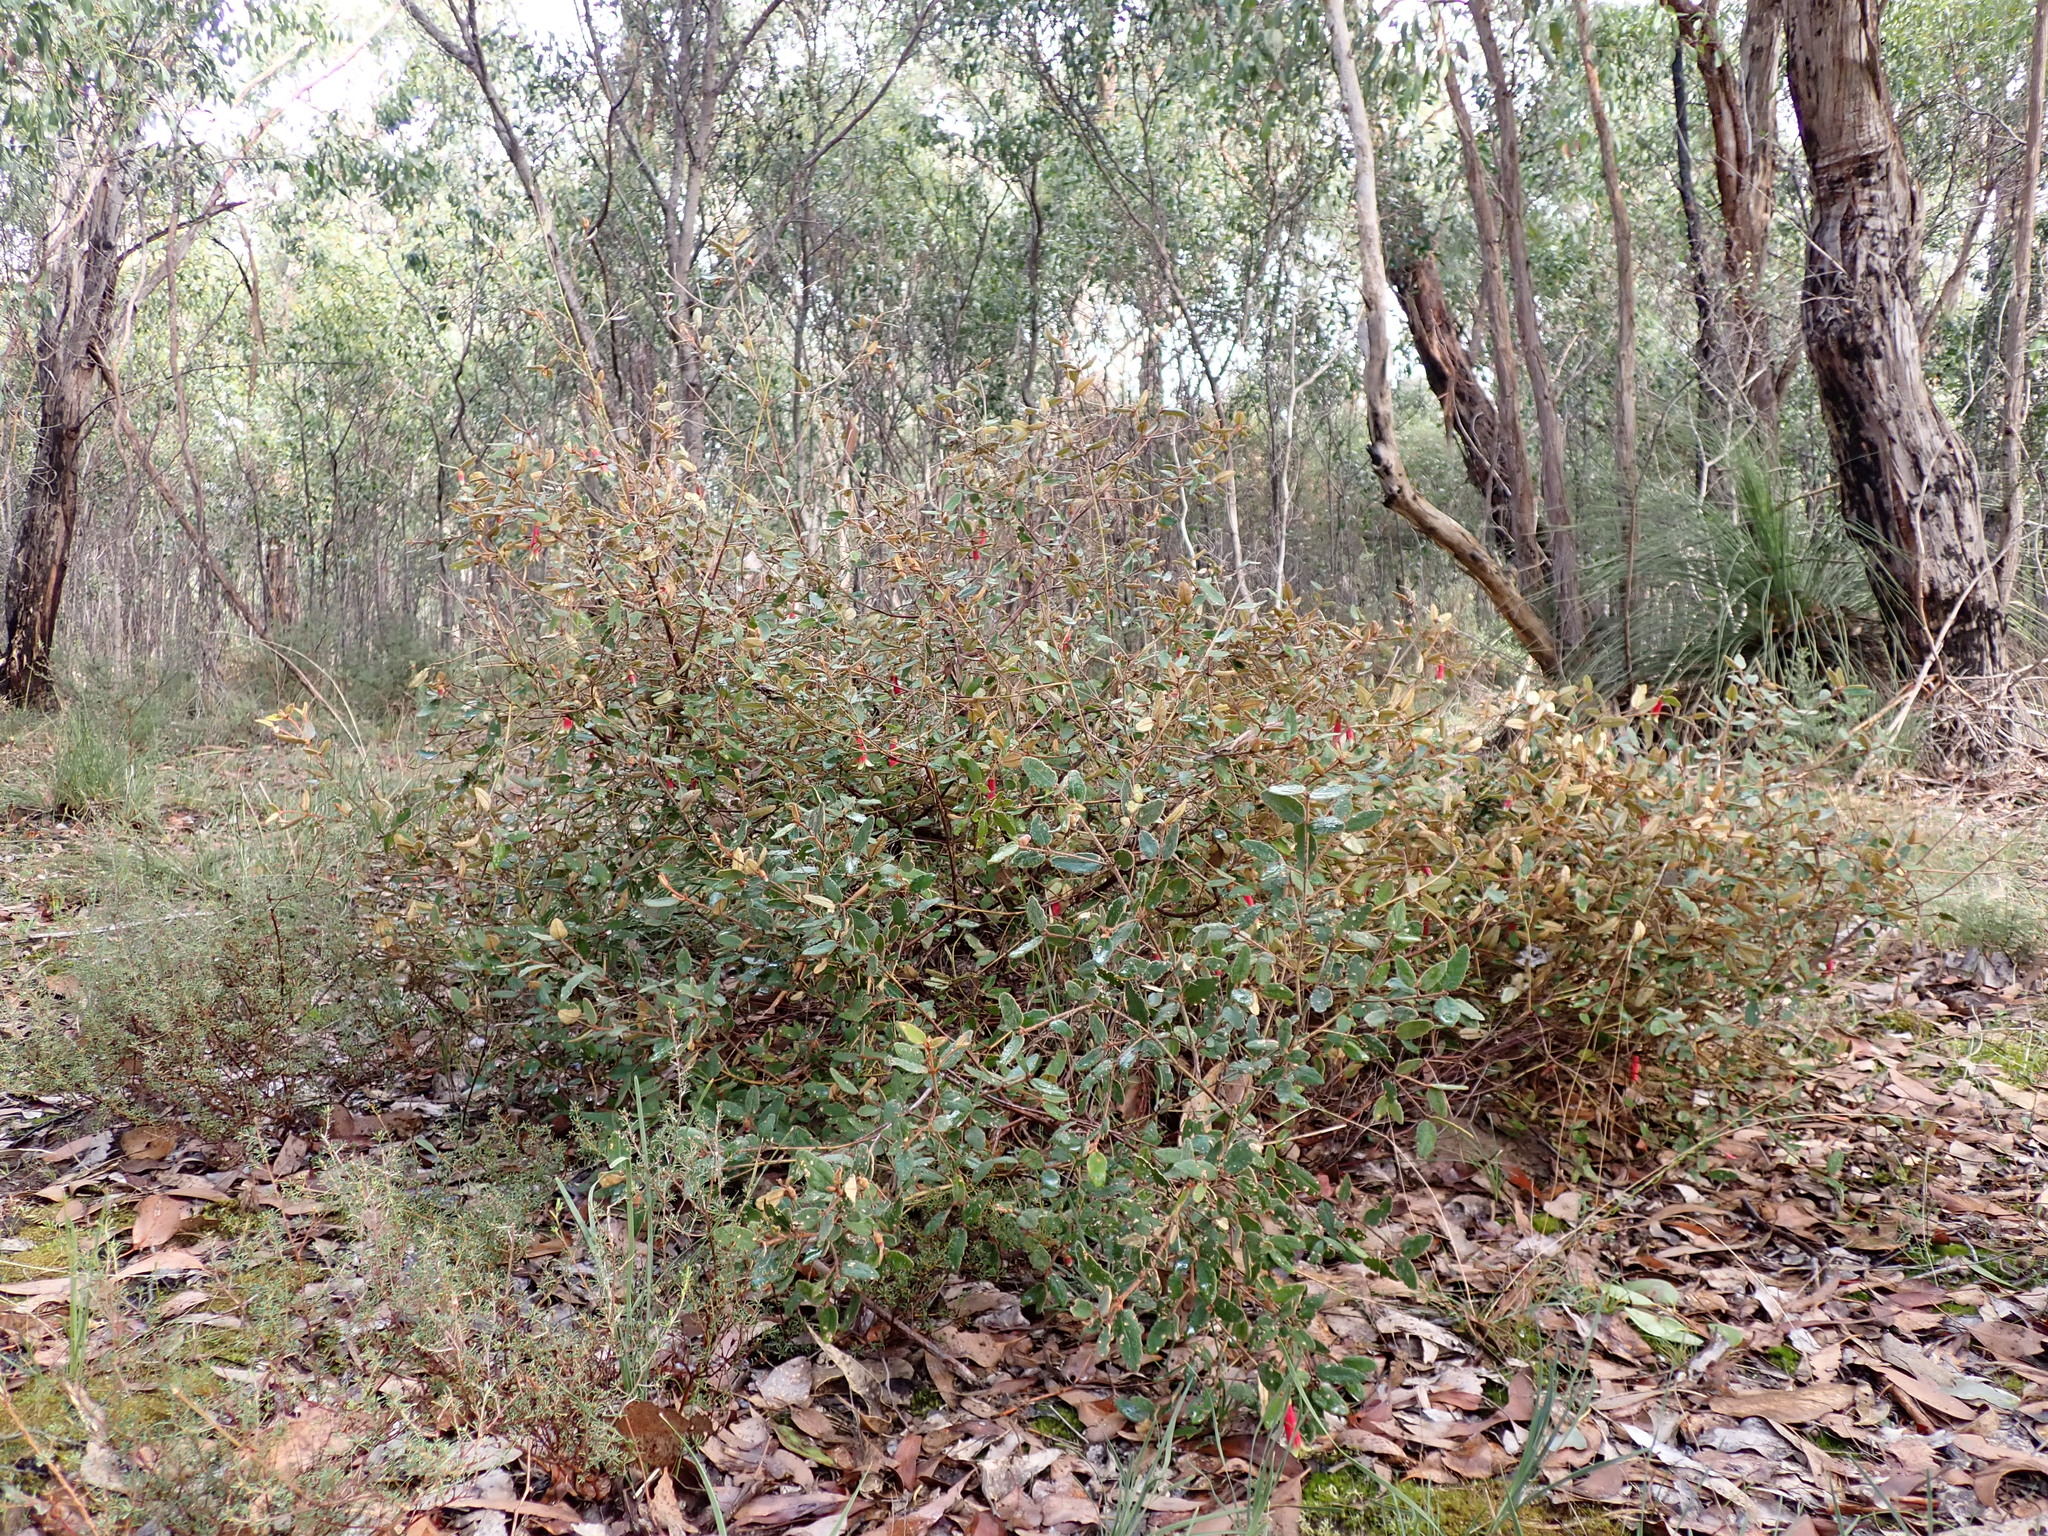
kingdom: Plantae
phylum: Tracheophyta
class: Magnoliopsida
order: Sapindales
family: Rutaceae
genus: Correa
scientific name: Correa reflexa
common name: Common correa
